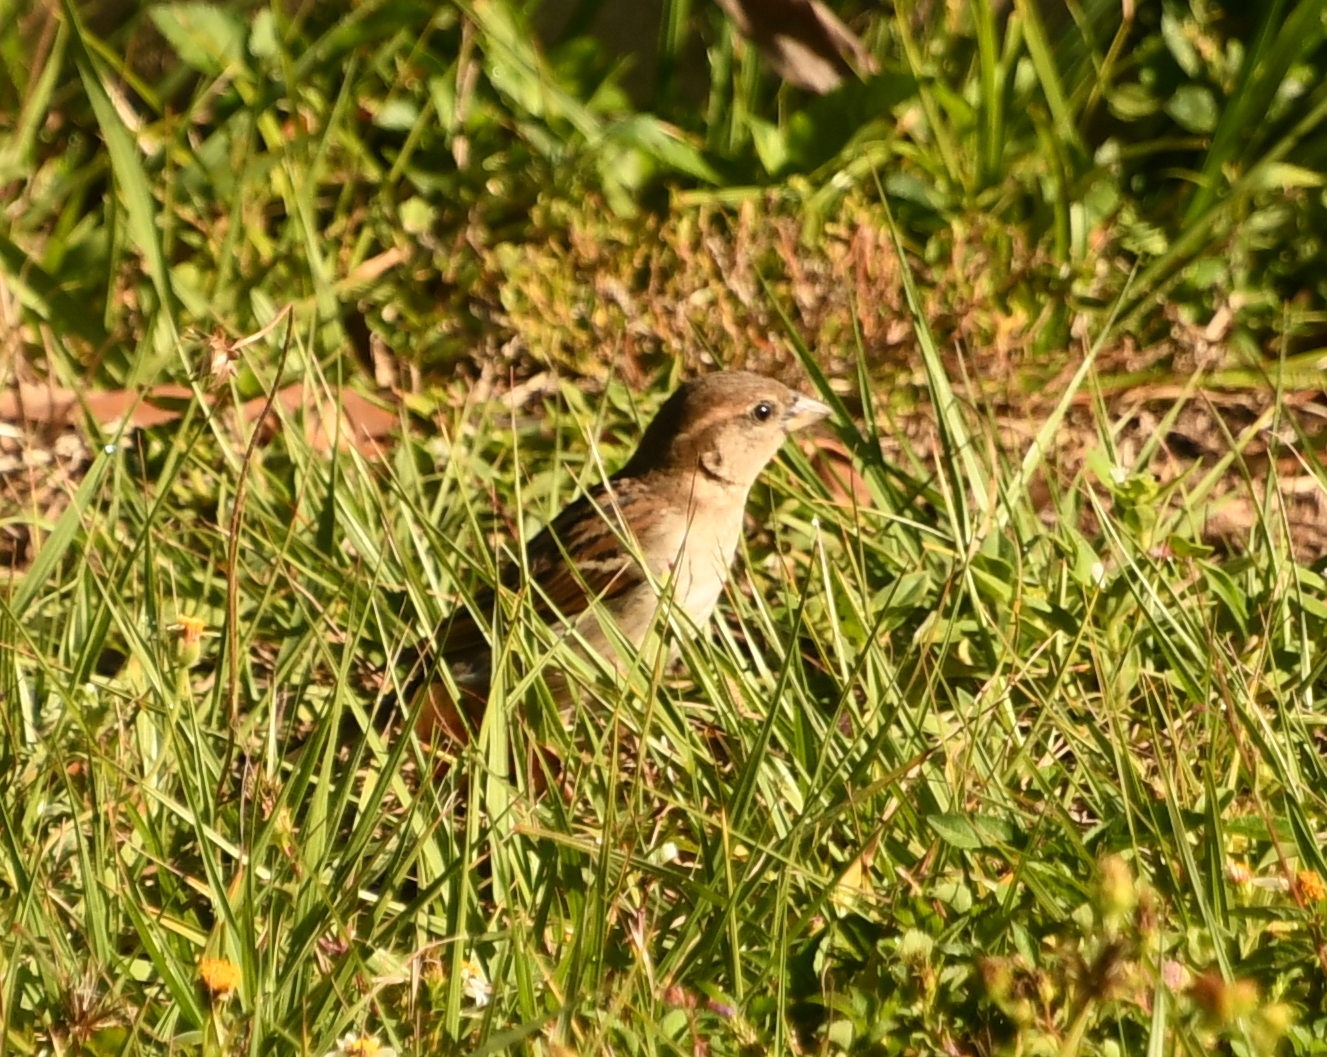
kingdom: Animalia
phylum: Chordata
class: Aves
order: Passeriformes
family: Passeridae
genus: Passer
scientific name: Passer domesticus
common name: House sparrow
